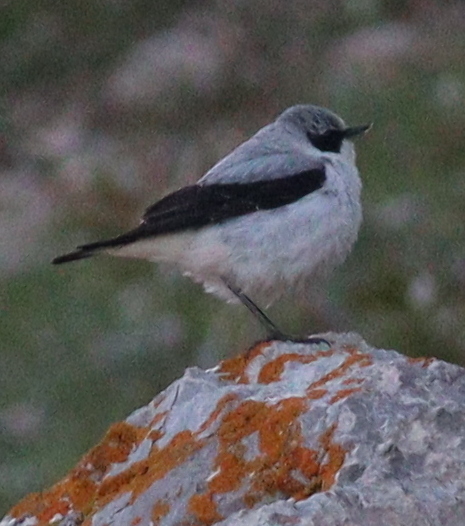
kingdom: Animalia
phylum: Chordata
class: Aves
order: Passeriformes
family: Muscicapidae
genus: Oenanthe
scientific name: Oenanthe oenanthe
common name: Northern wheatear
